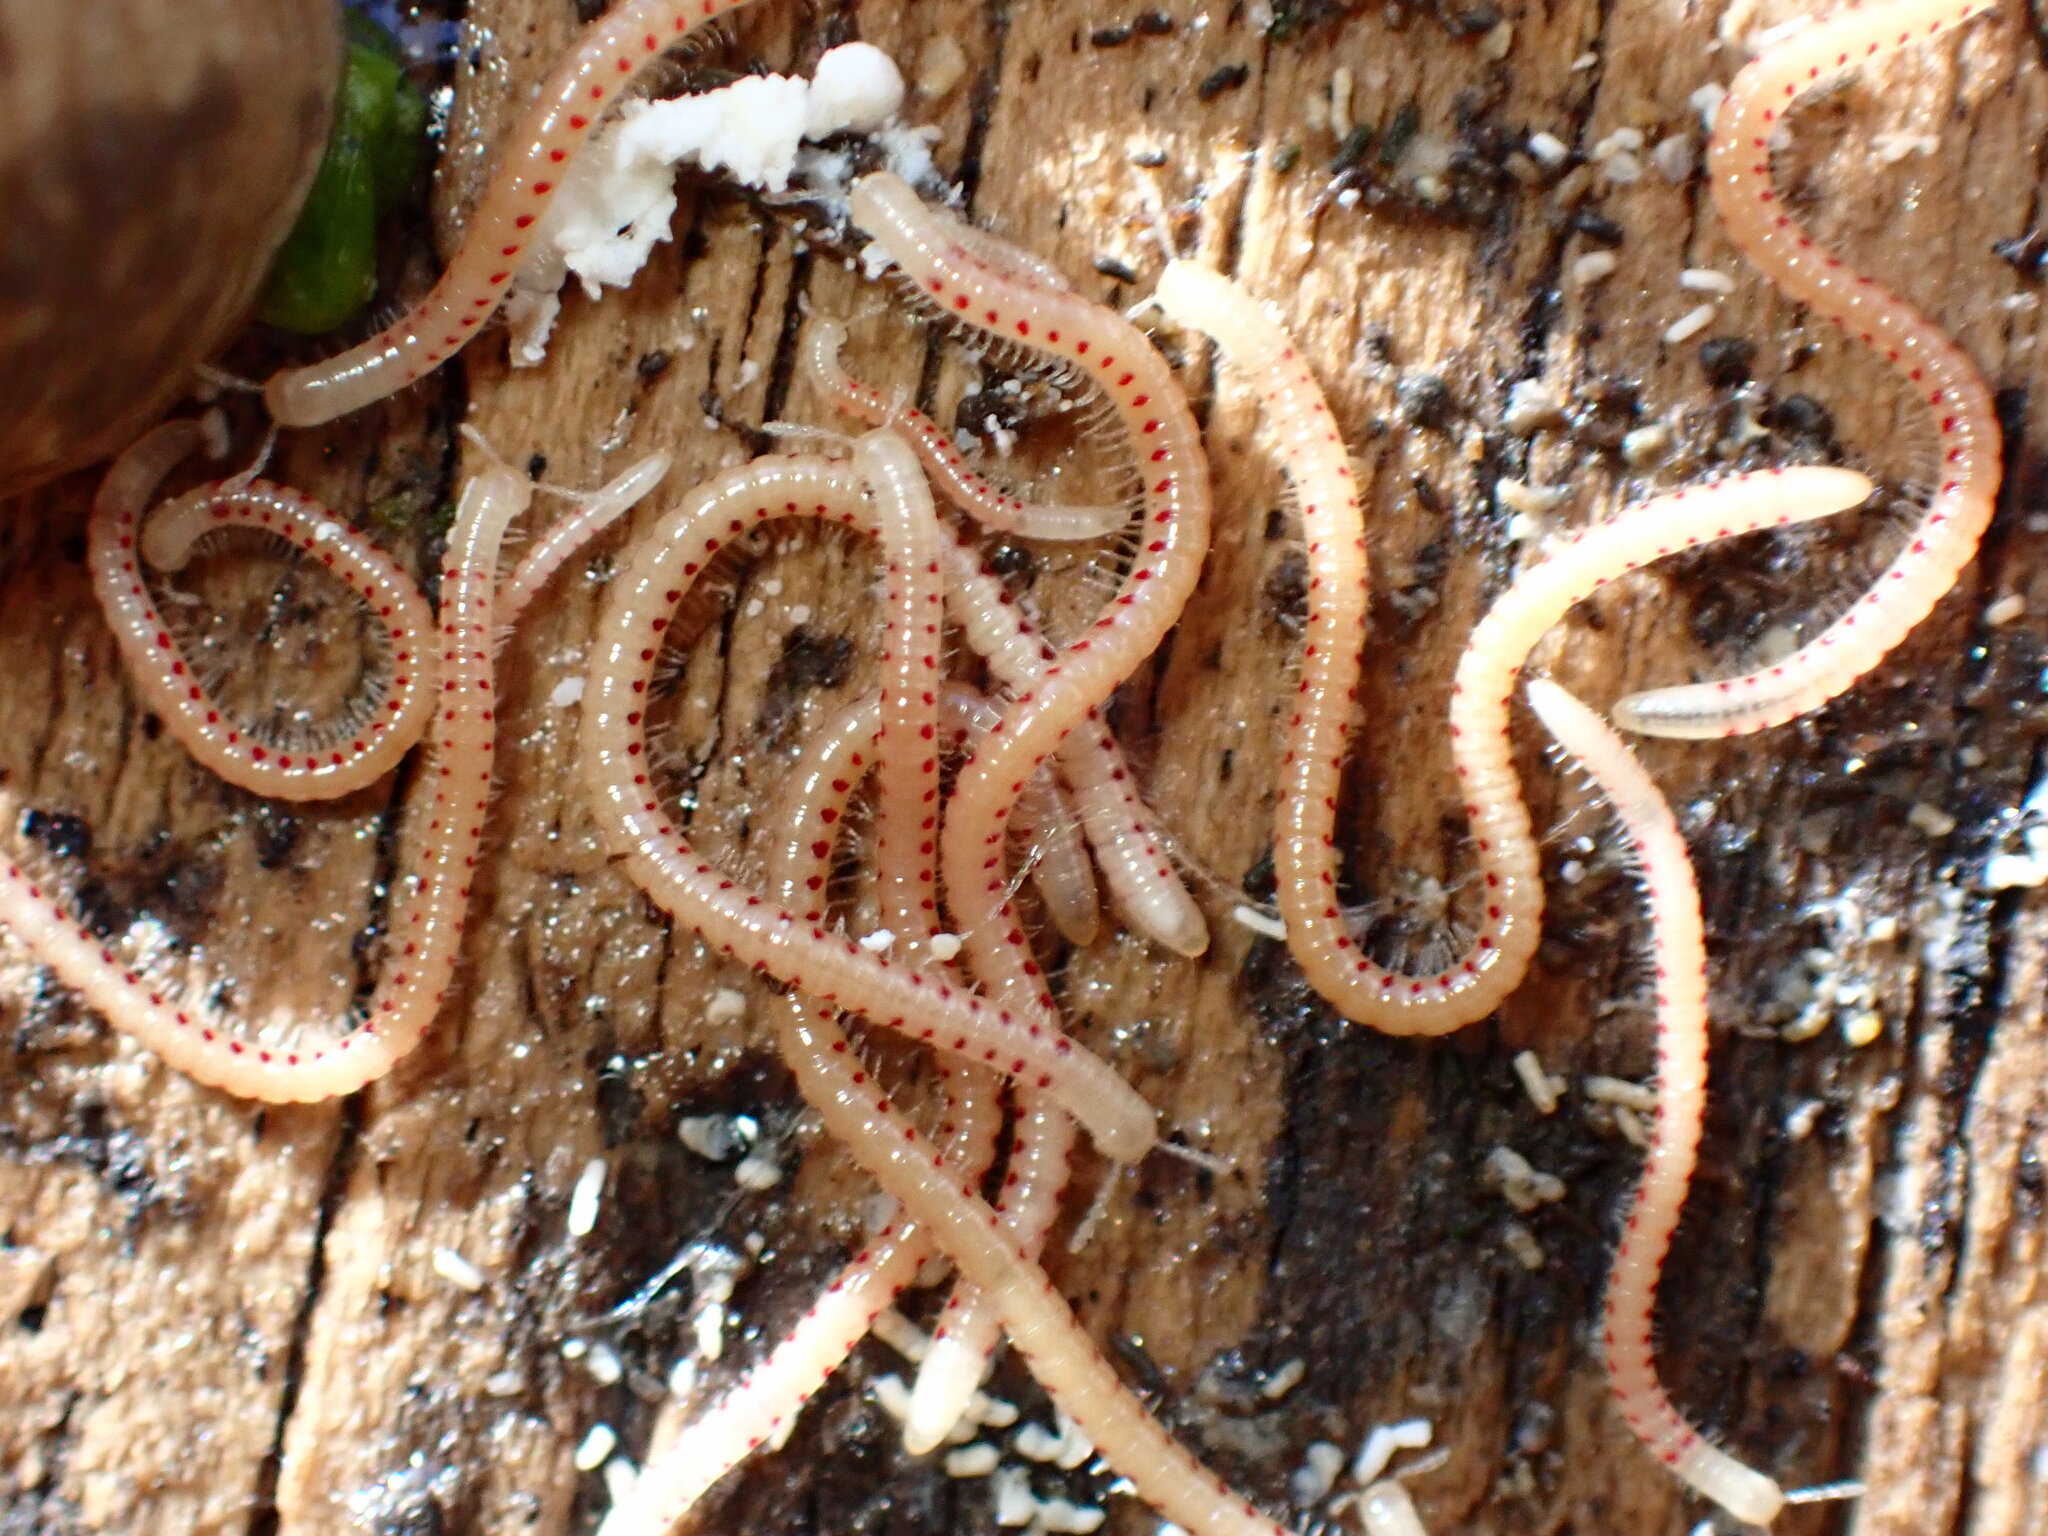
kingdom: Animalia
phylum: Arthropoda
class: Diplopoda
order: Julida
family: Blaniulidae
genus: Blaniulus
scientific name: Blaniulus guttulatus
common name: Spotted snake millipede
